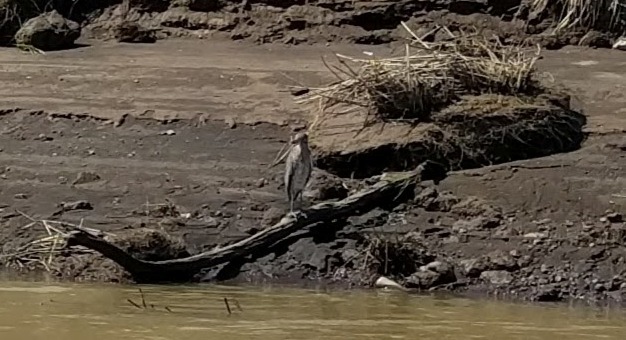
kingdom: Animalia
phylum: Chordata
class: Aves
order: Pelecaniformes
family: Ardeidae
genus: Nyctanassa
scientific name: Nyctanassa violacea
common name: Yellow-crowned night heron
